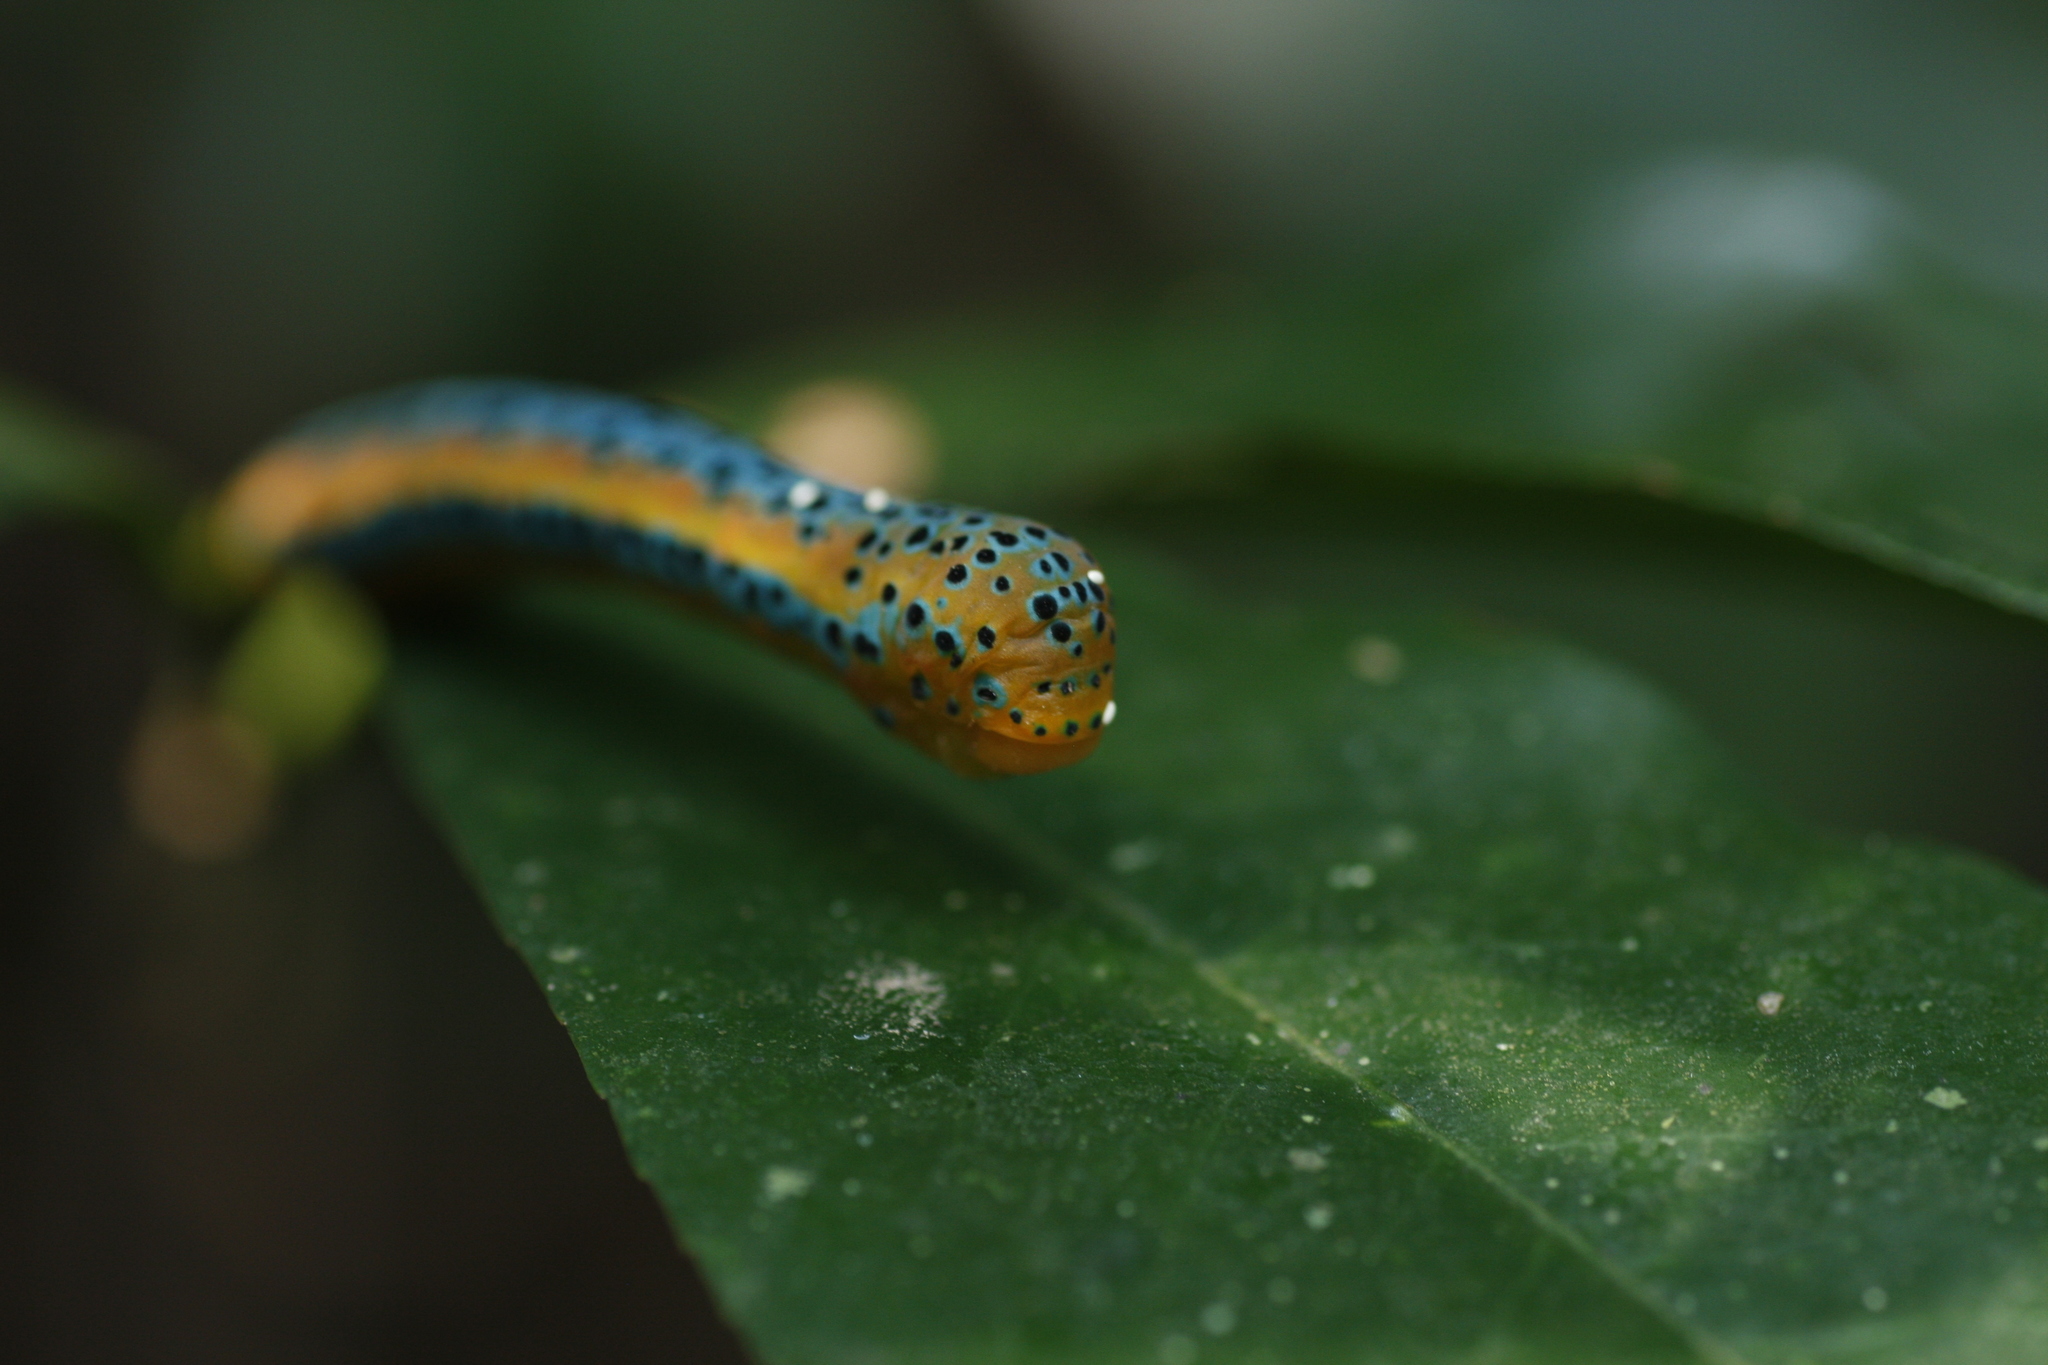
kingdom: Animalia
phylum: Arthropoda
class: Insecta
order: Lepidoptera
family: Geometridae
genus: Dysphania
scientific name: Dysphania percota
